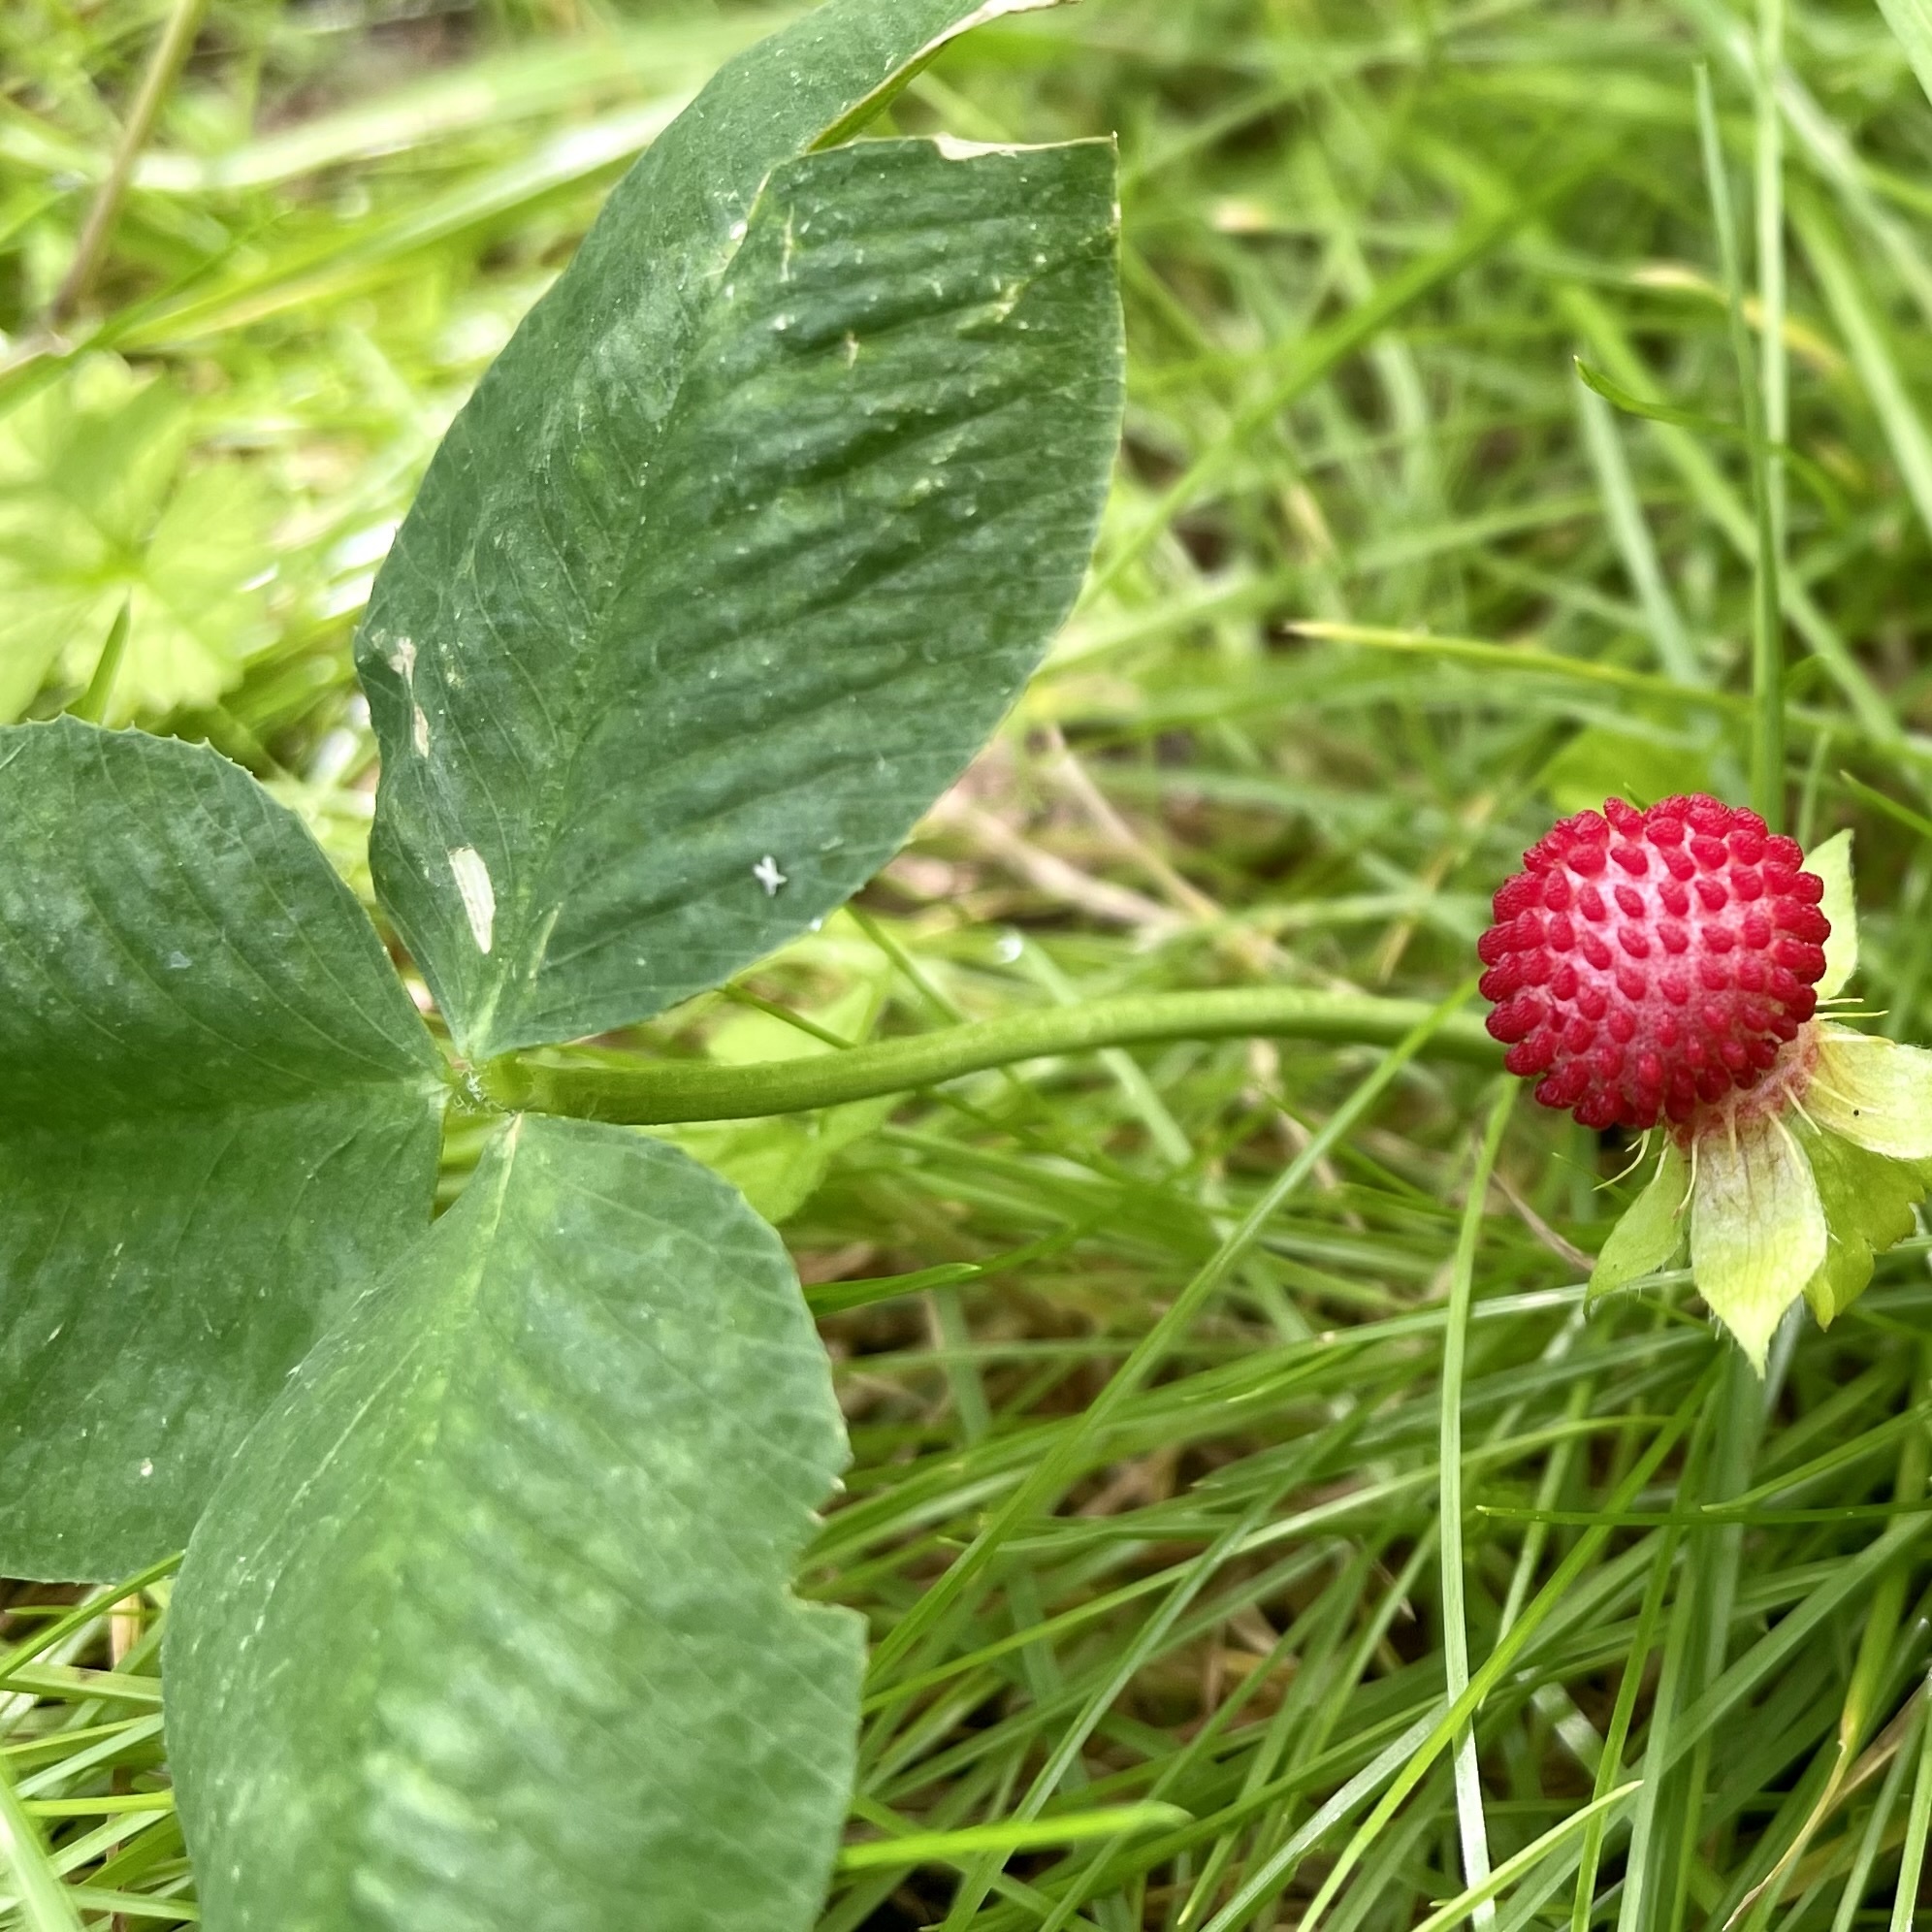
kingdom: Plantae
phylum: Tracheophyta
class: Magnoliopsida
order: Rosales
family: Rosaceae
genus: Potentilla
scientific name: Potentilla indica
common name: Yellow-flowered strawberry
